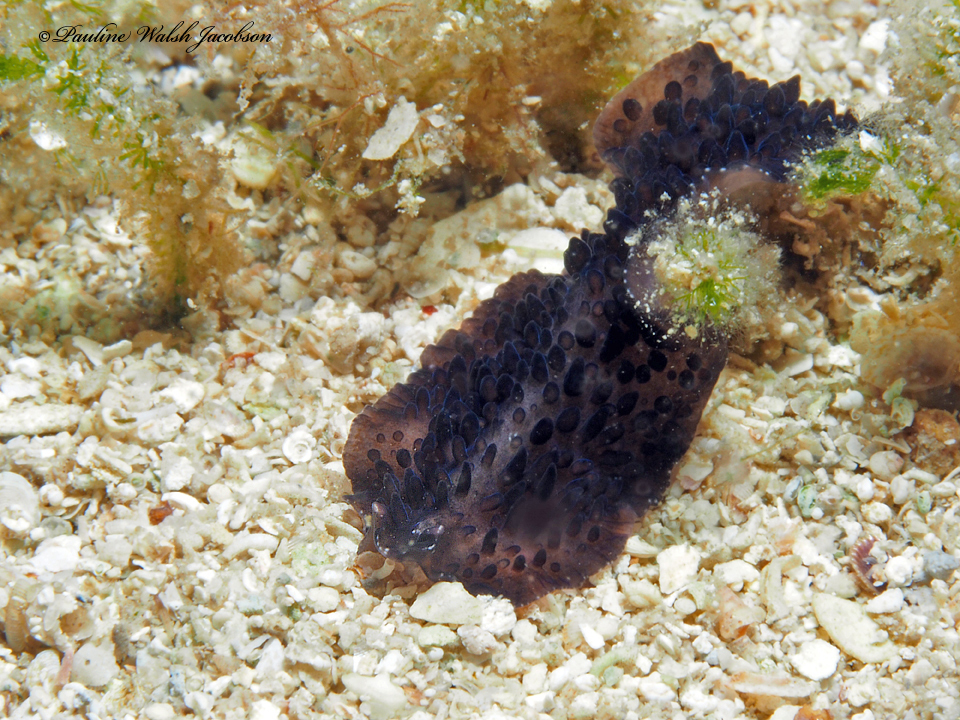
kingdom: Animalia
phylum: Platyhelminthes
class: Turbellaria
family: Pseudocerotidae
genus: Thysanozoon
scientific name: Thysanozoon nigrum
